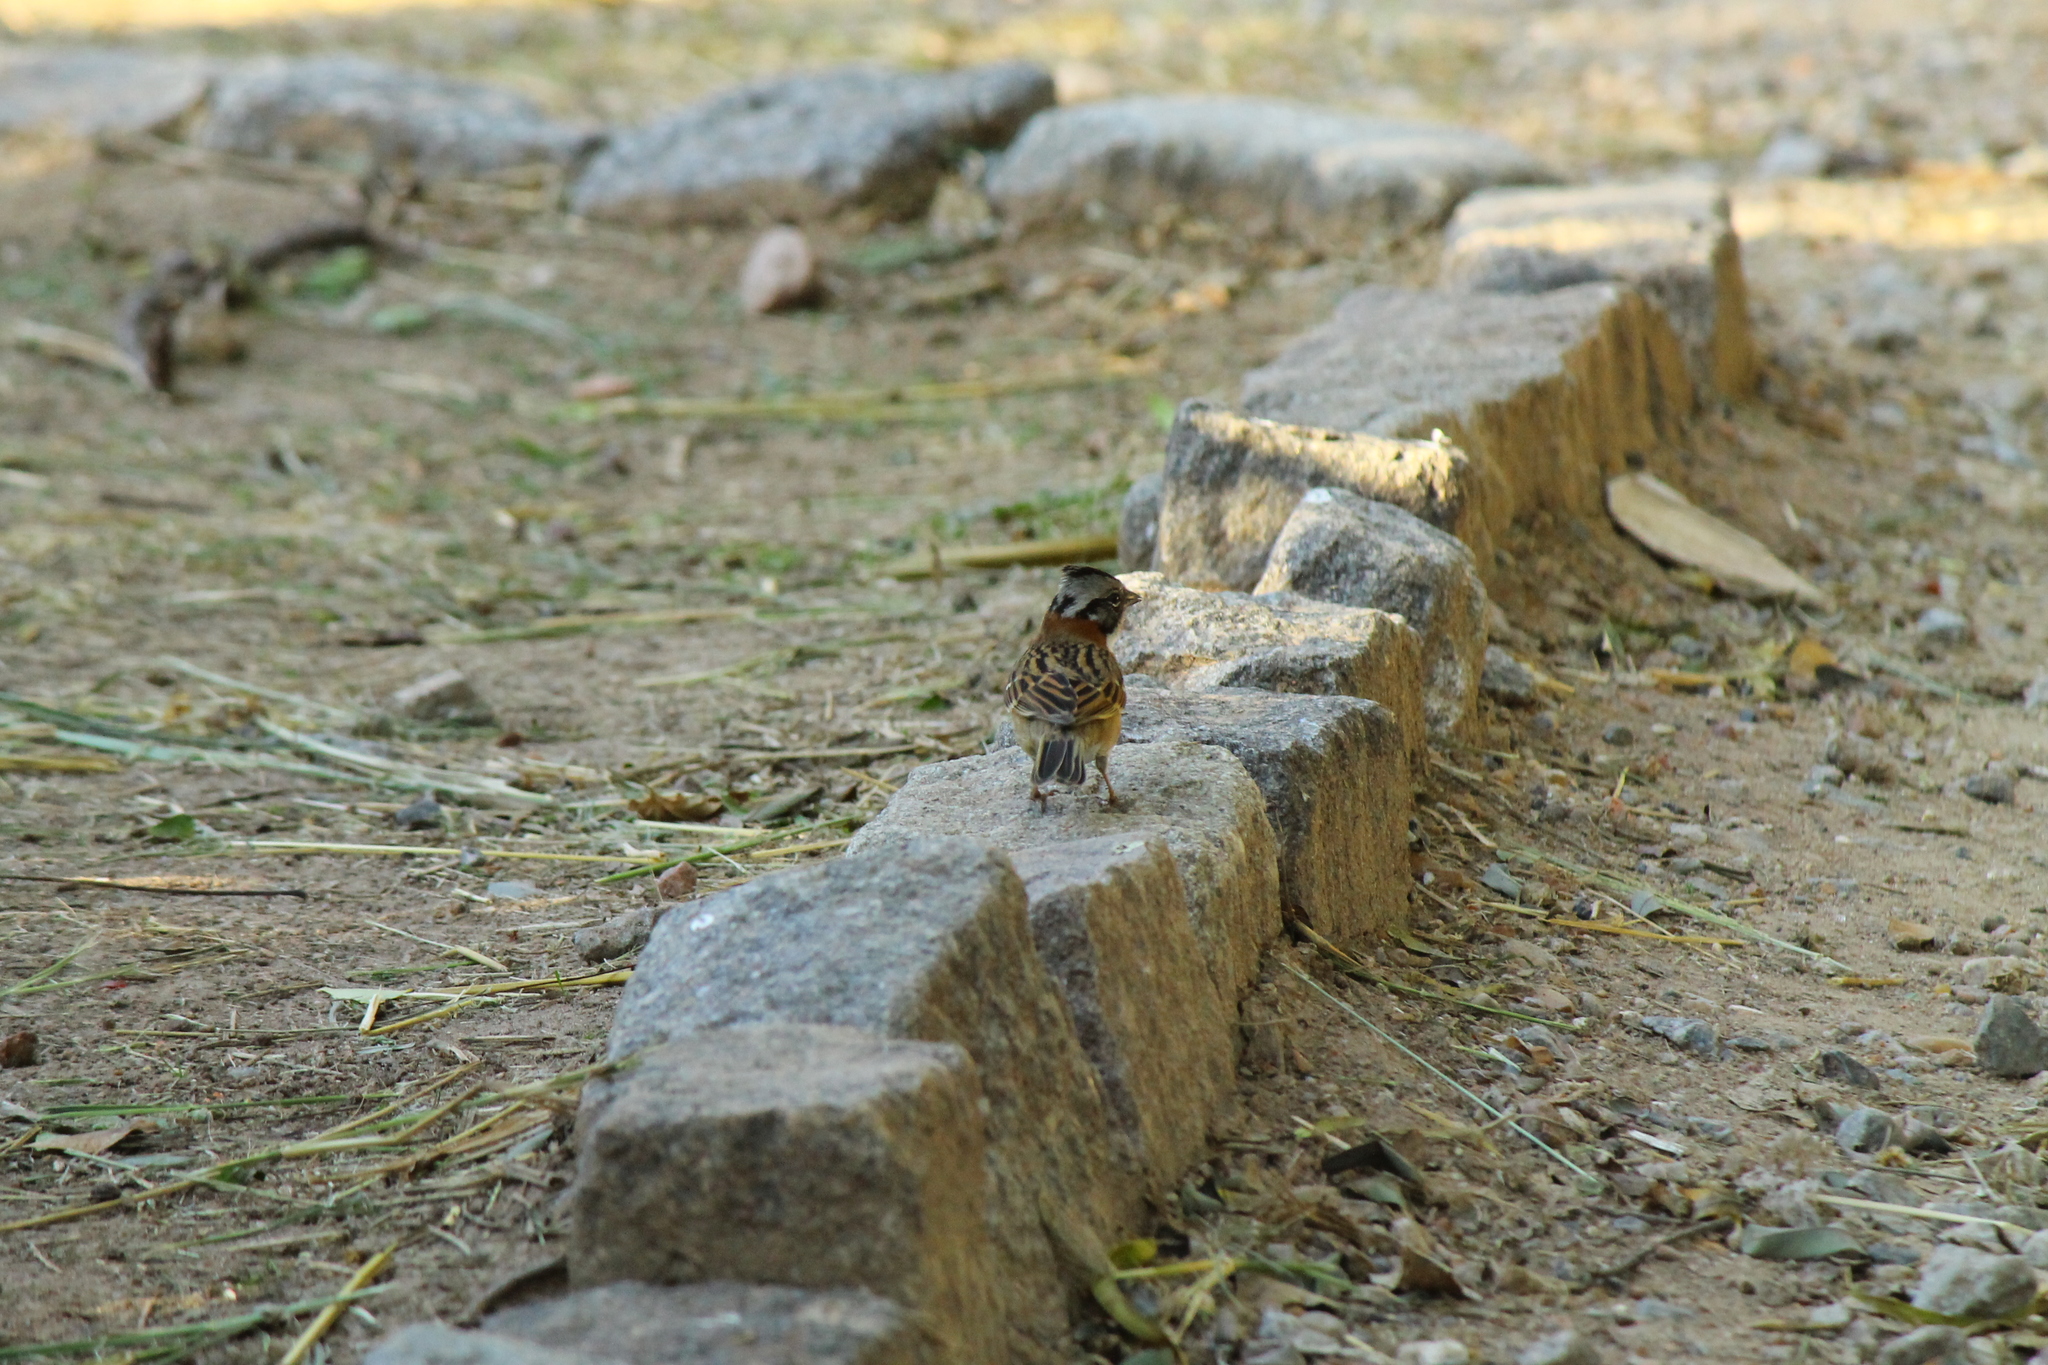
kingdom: Animalia
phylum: Chordata
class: Aves
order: Passeriformes
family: Passerellidae
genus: Zonotrichia
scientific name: Zonotrichia capensis
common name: Rufous-collared sparrow
